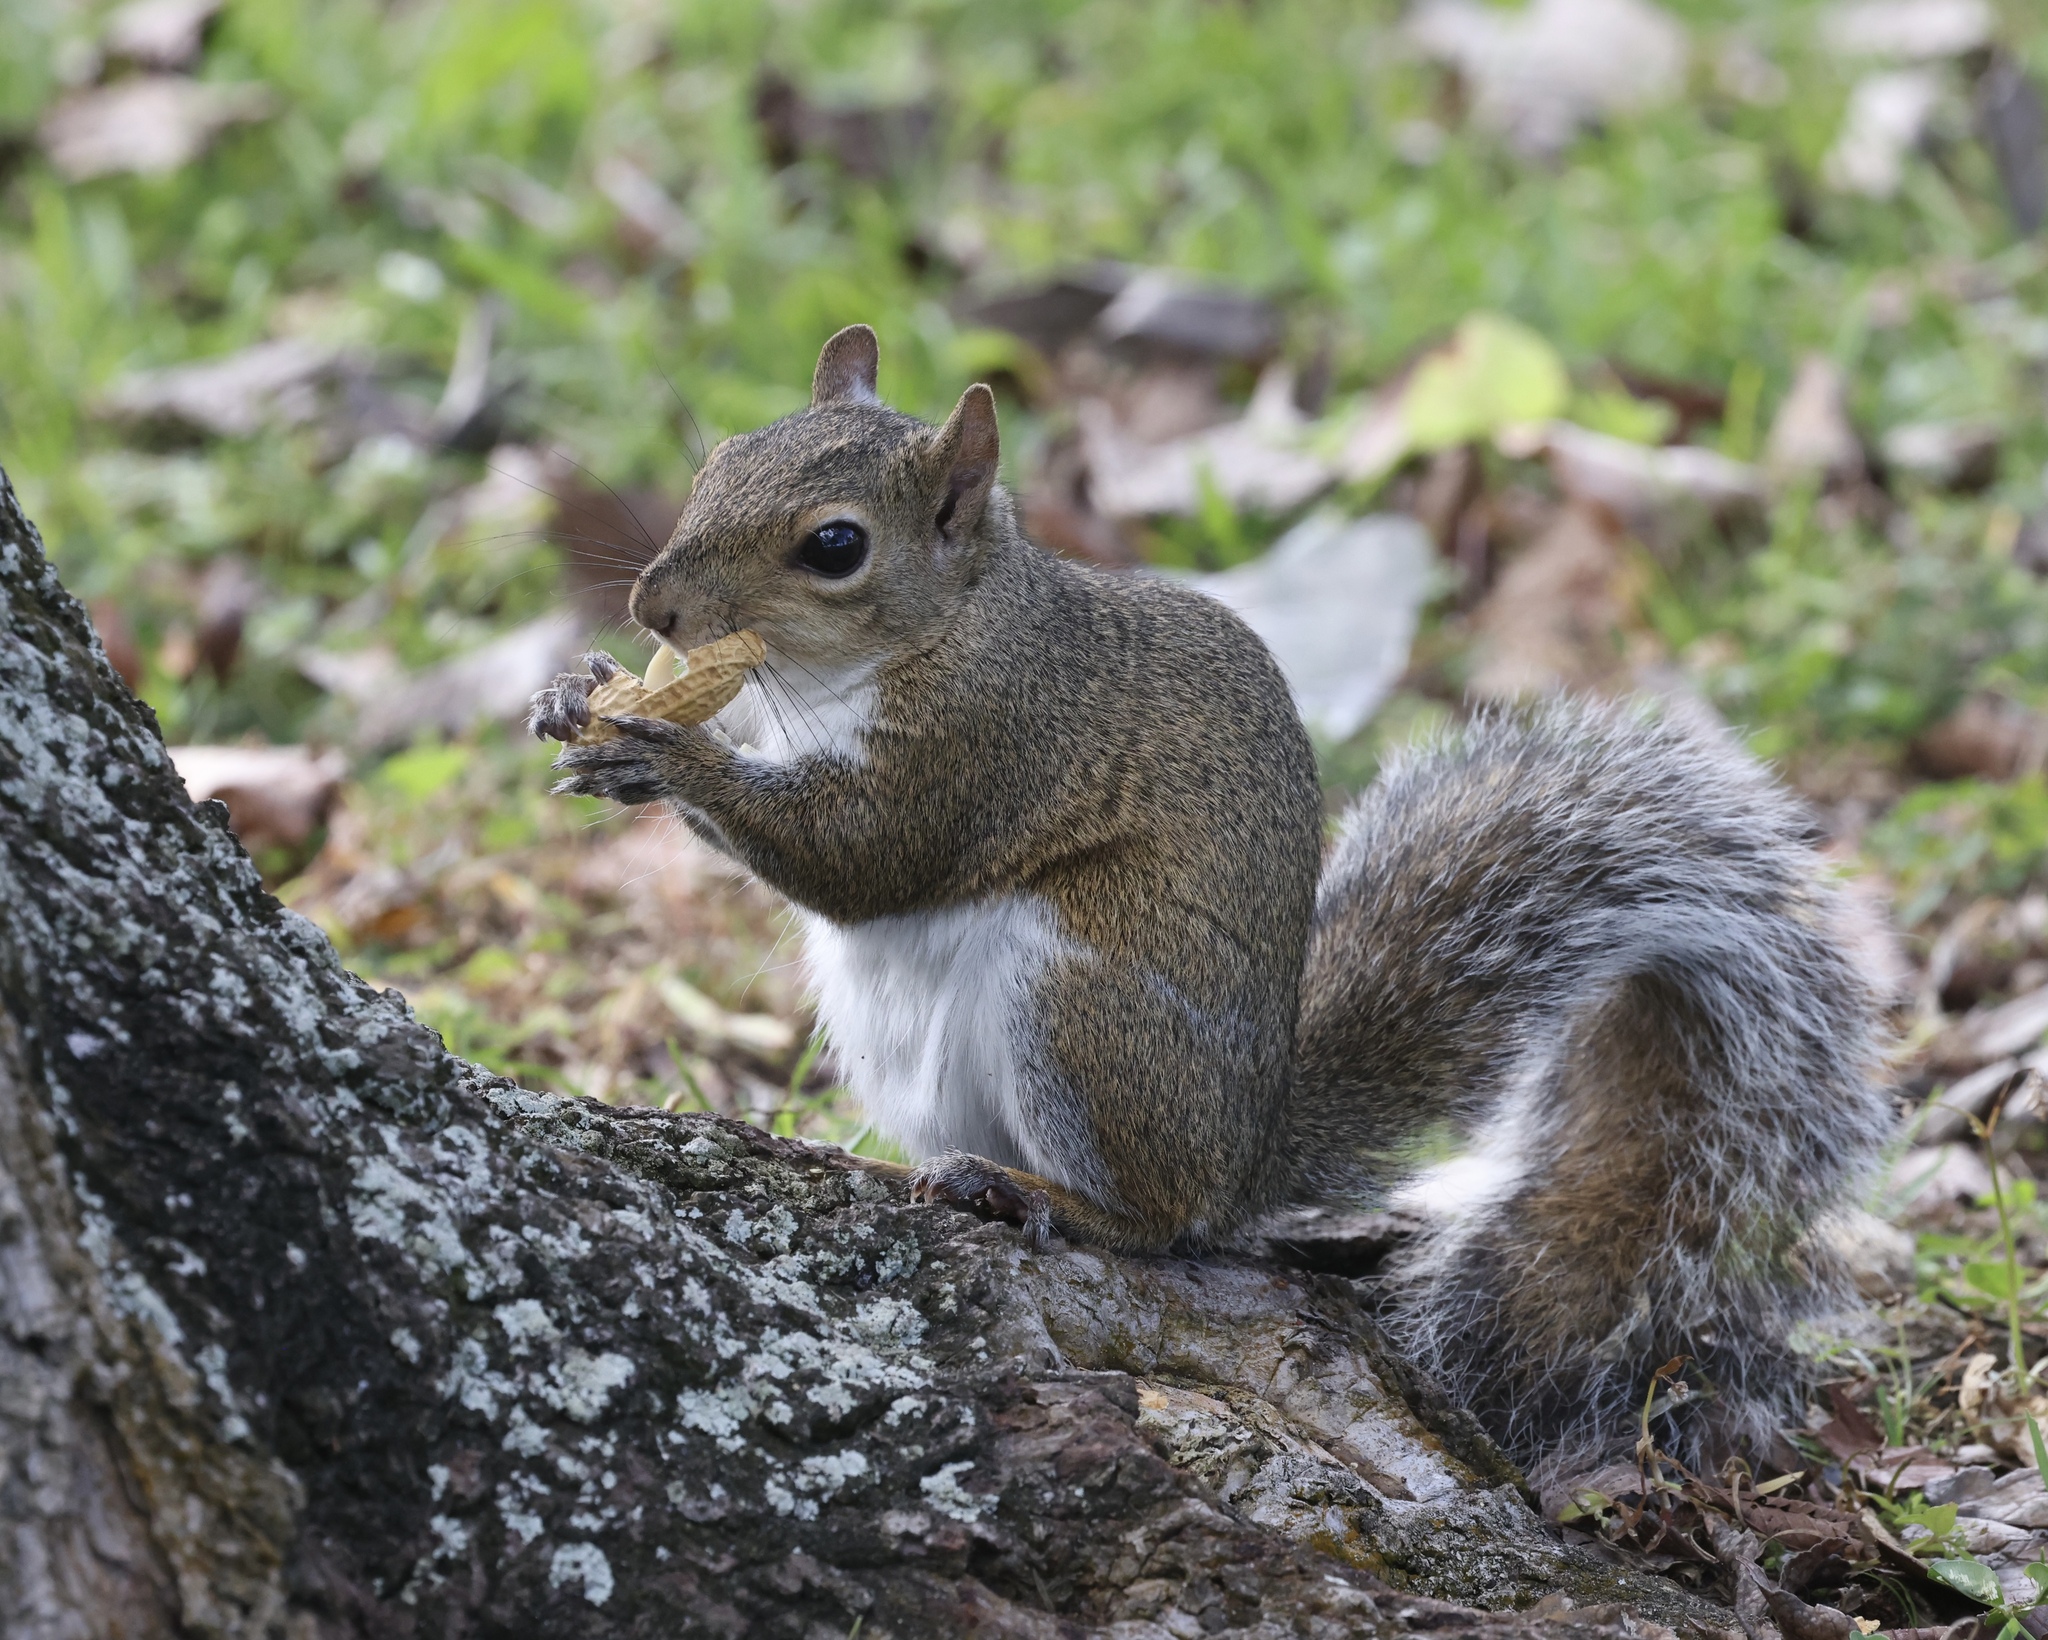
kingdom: Animalia
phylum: Chordata
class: Mammalia
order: Rodentia
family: Sciuridae
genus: Sciurus
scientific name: Sciurus carolinensis
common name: Eastern gray squirrel
